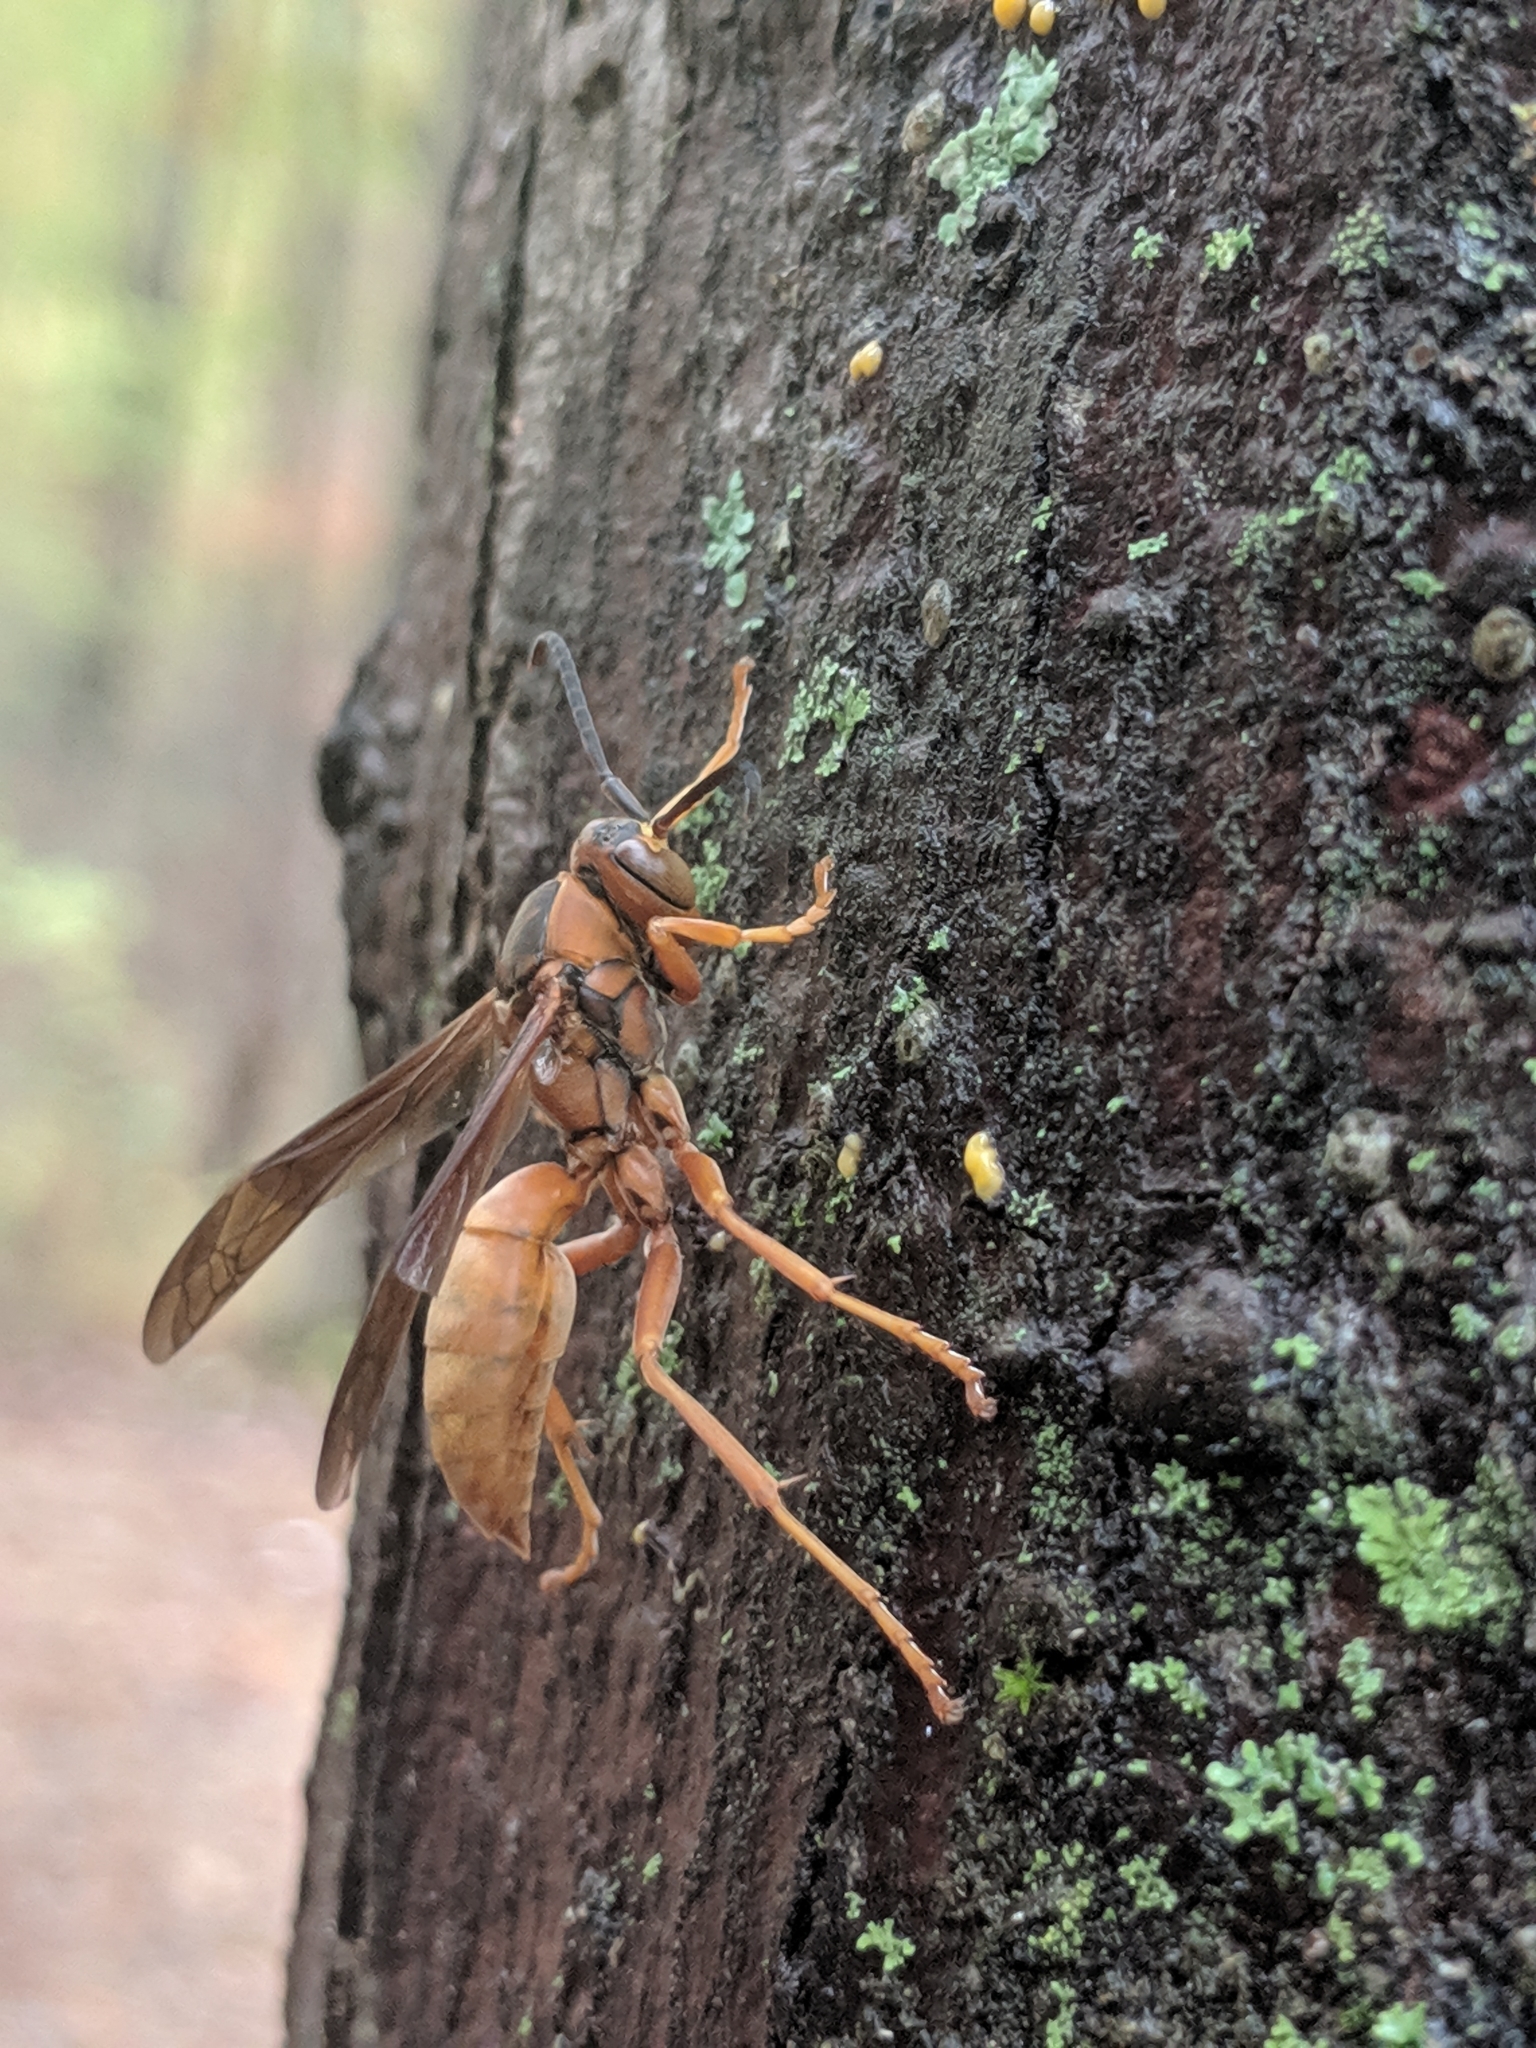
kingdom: Animalia
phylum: Arthropoda
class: Insecta
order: Hymenoptera
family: Eumenidae
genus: Polistes
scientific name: Polistes carolina
